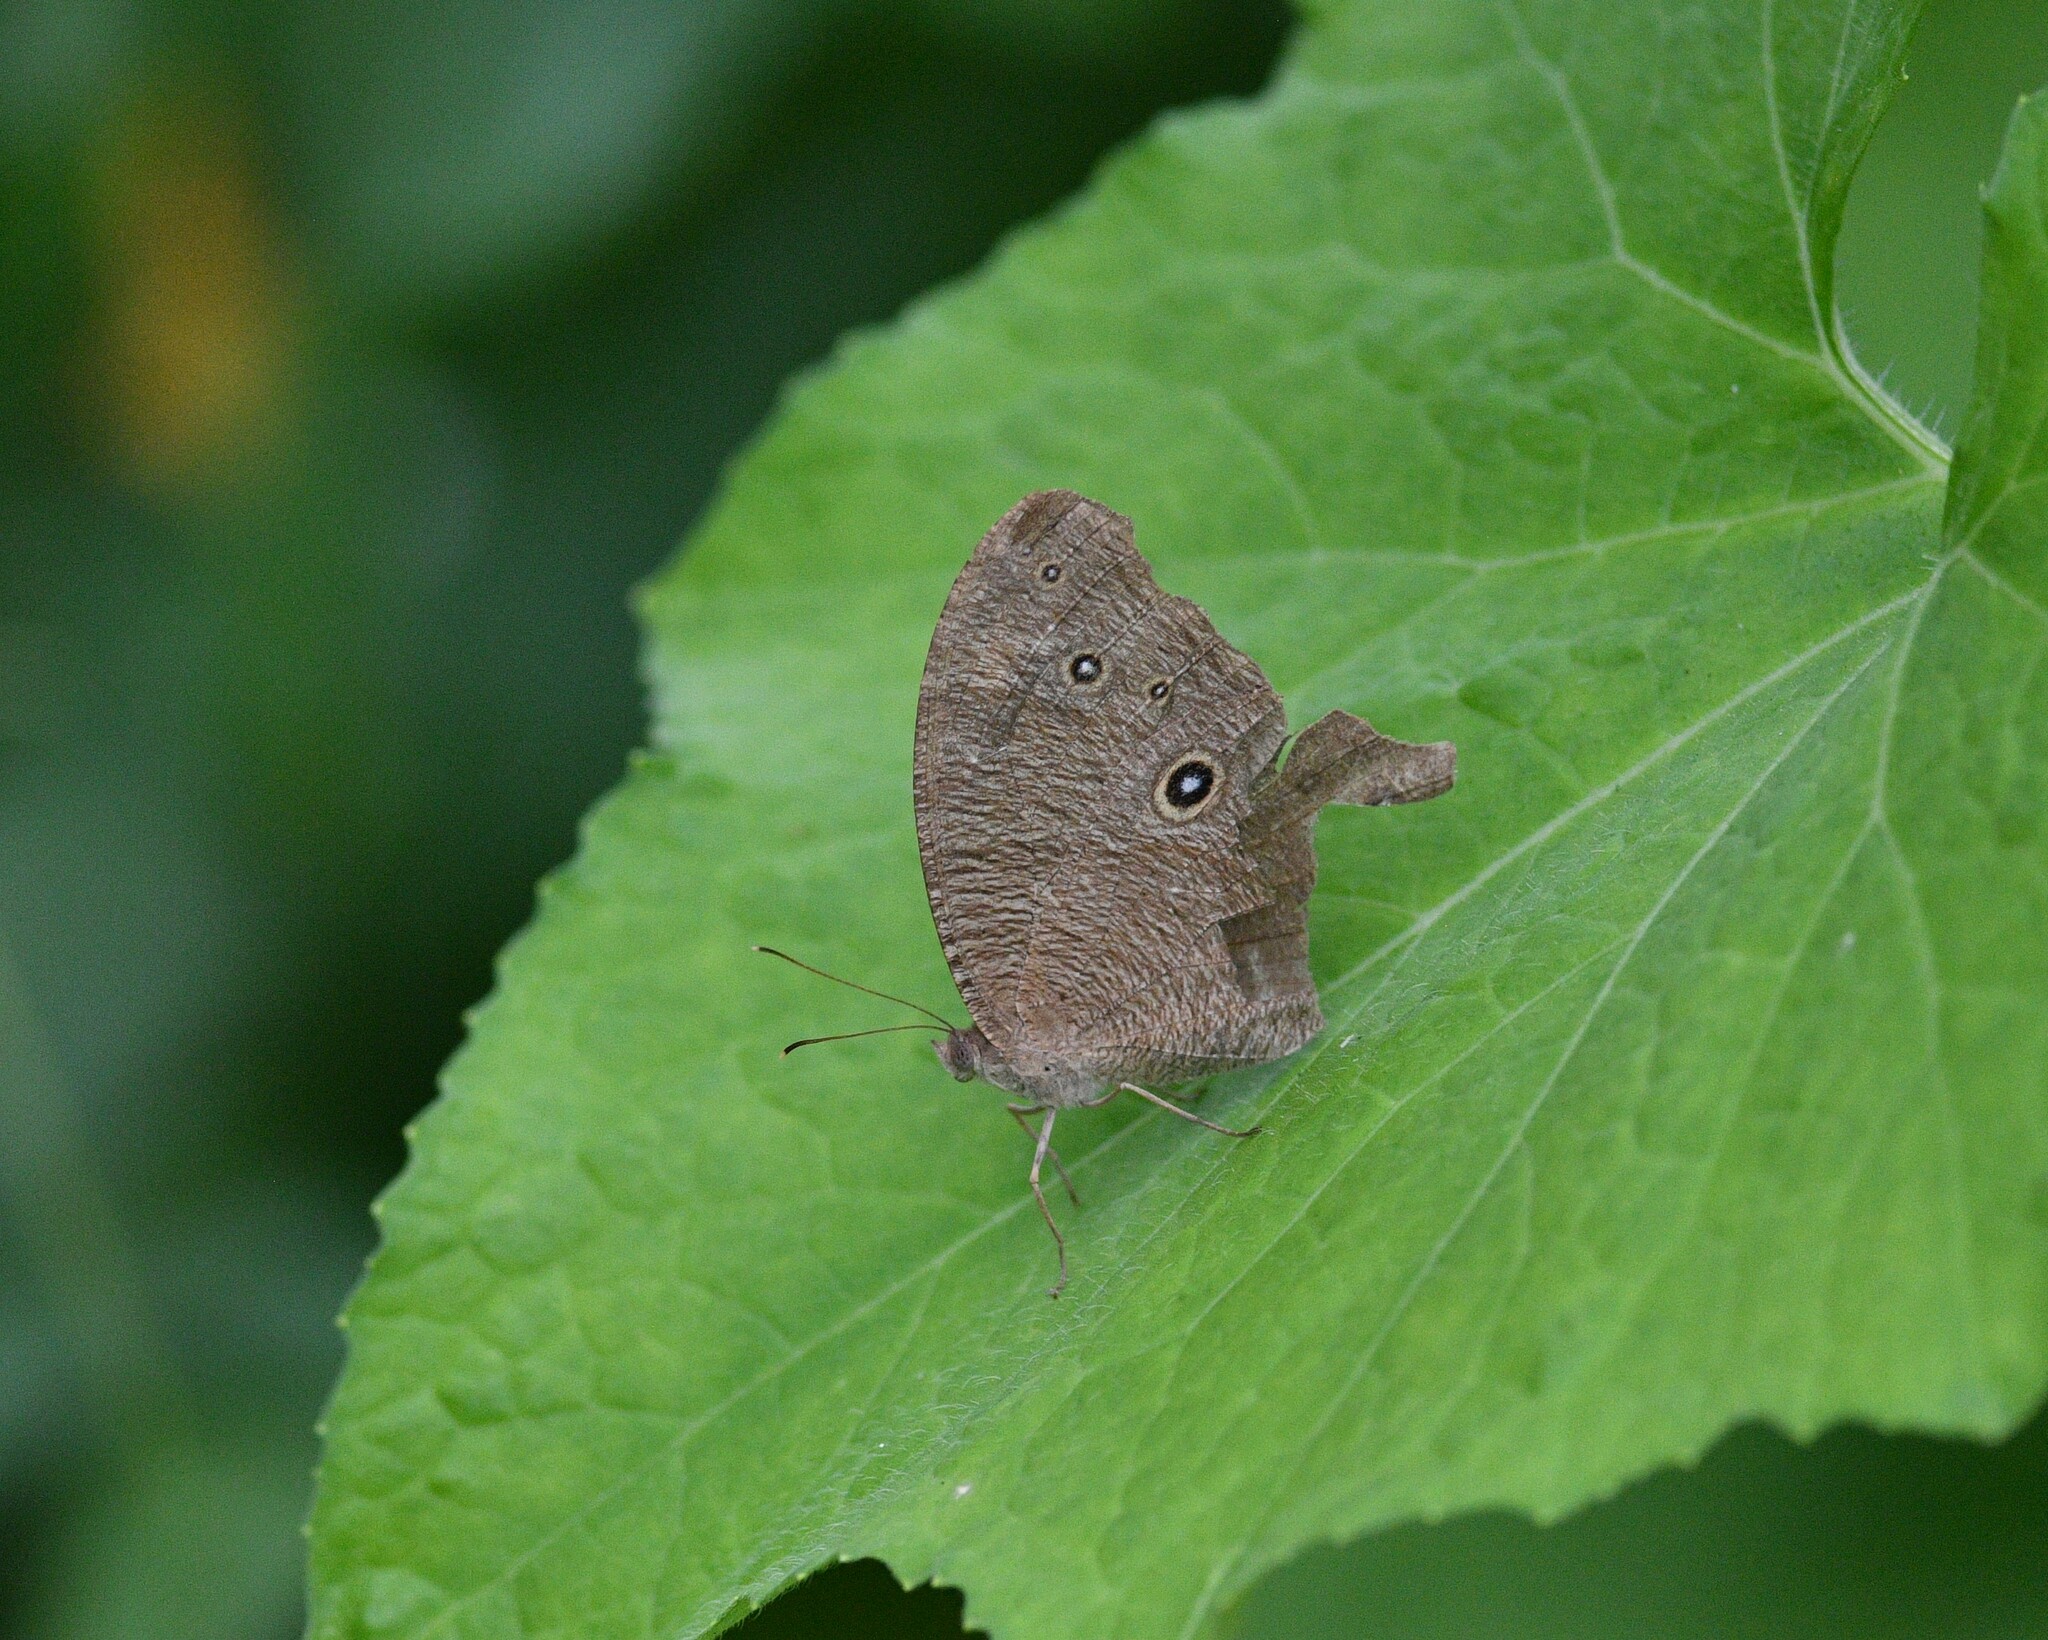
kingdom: Animalia
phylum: Arthropoda
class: Insecta
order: Lepidoptera
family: Nymphalidae
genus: Melanitis
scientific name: Melanitis leda
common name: Twilight brown
